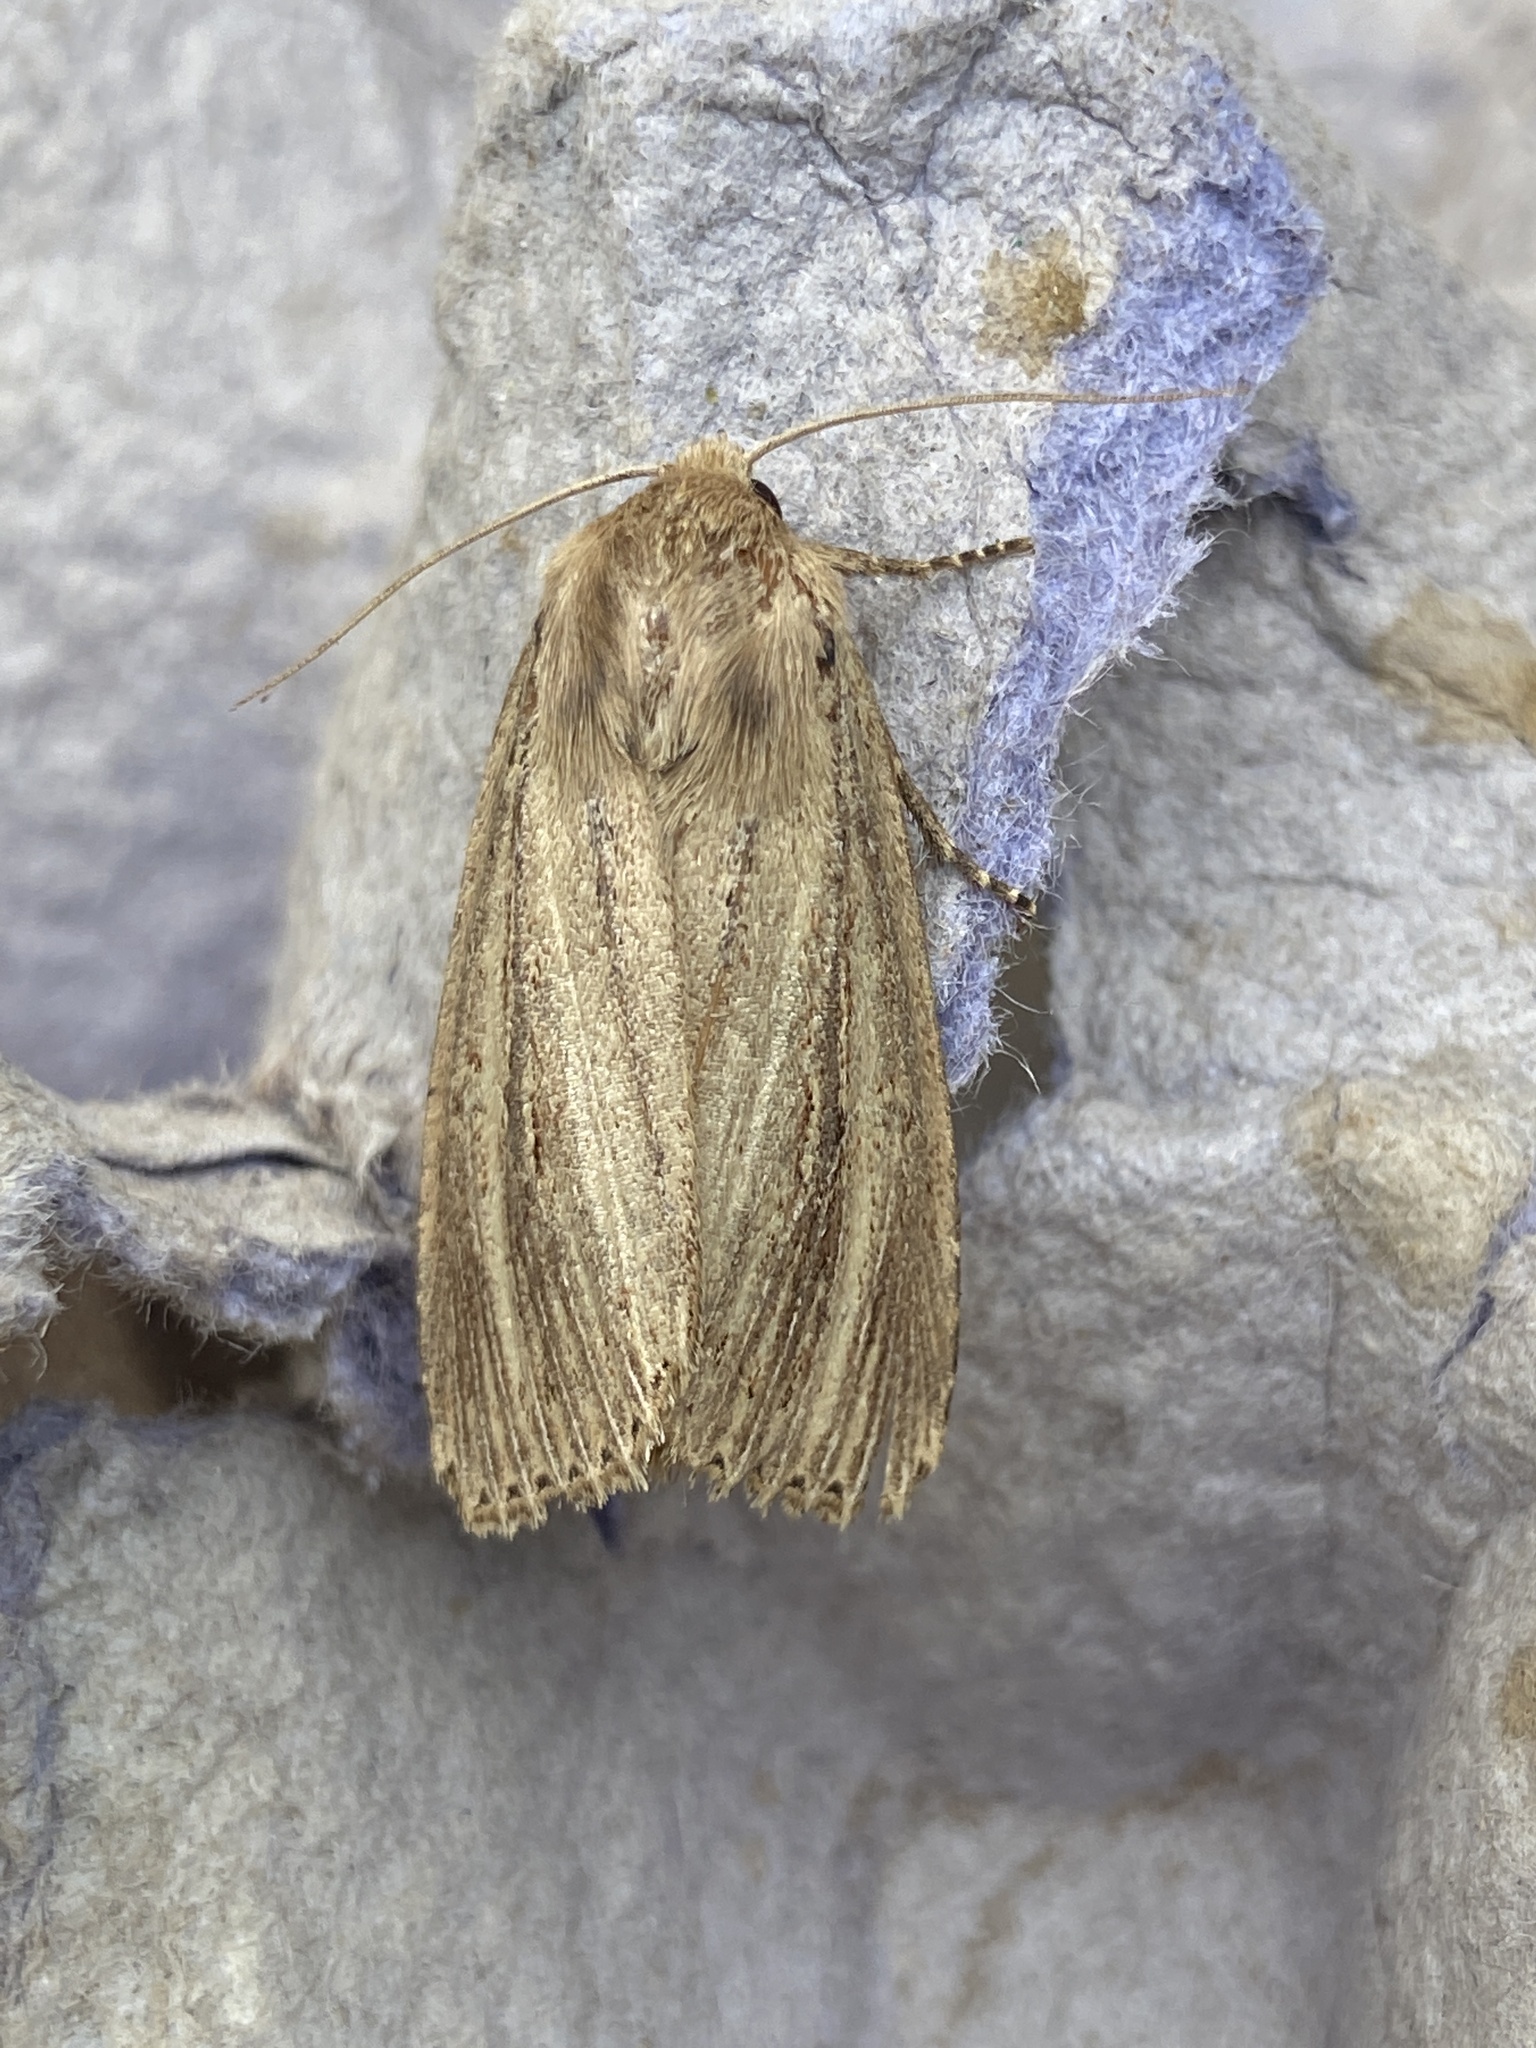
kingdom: Animalia
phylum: Arthropoda
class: Insecta
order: Lepidoptera
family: Noctuidae
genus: Nonagria
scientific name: Nonagria typhae
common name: Bulrush wainscot
